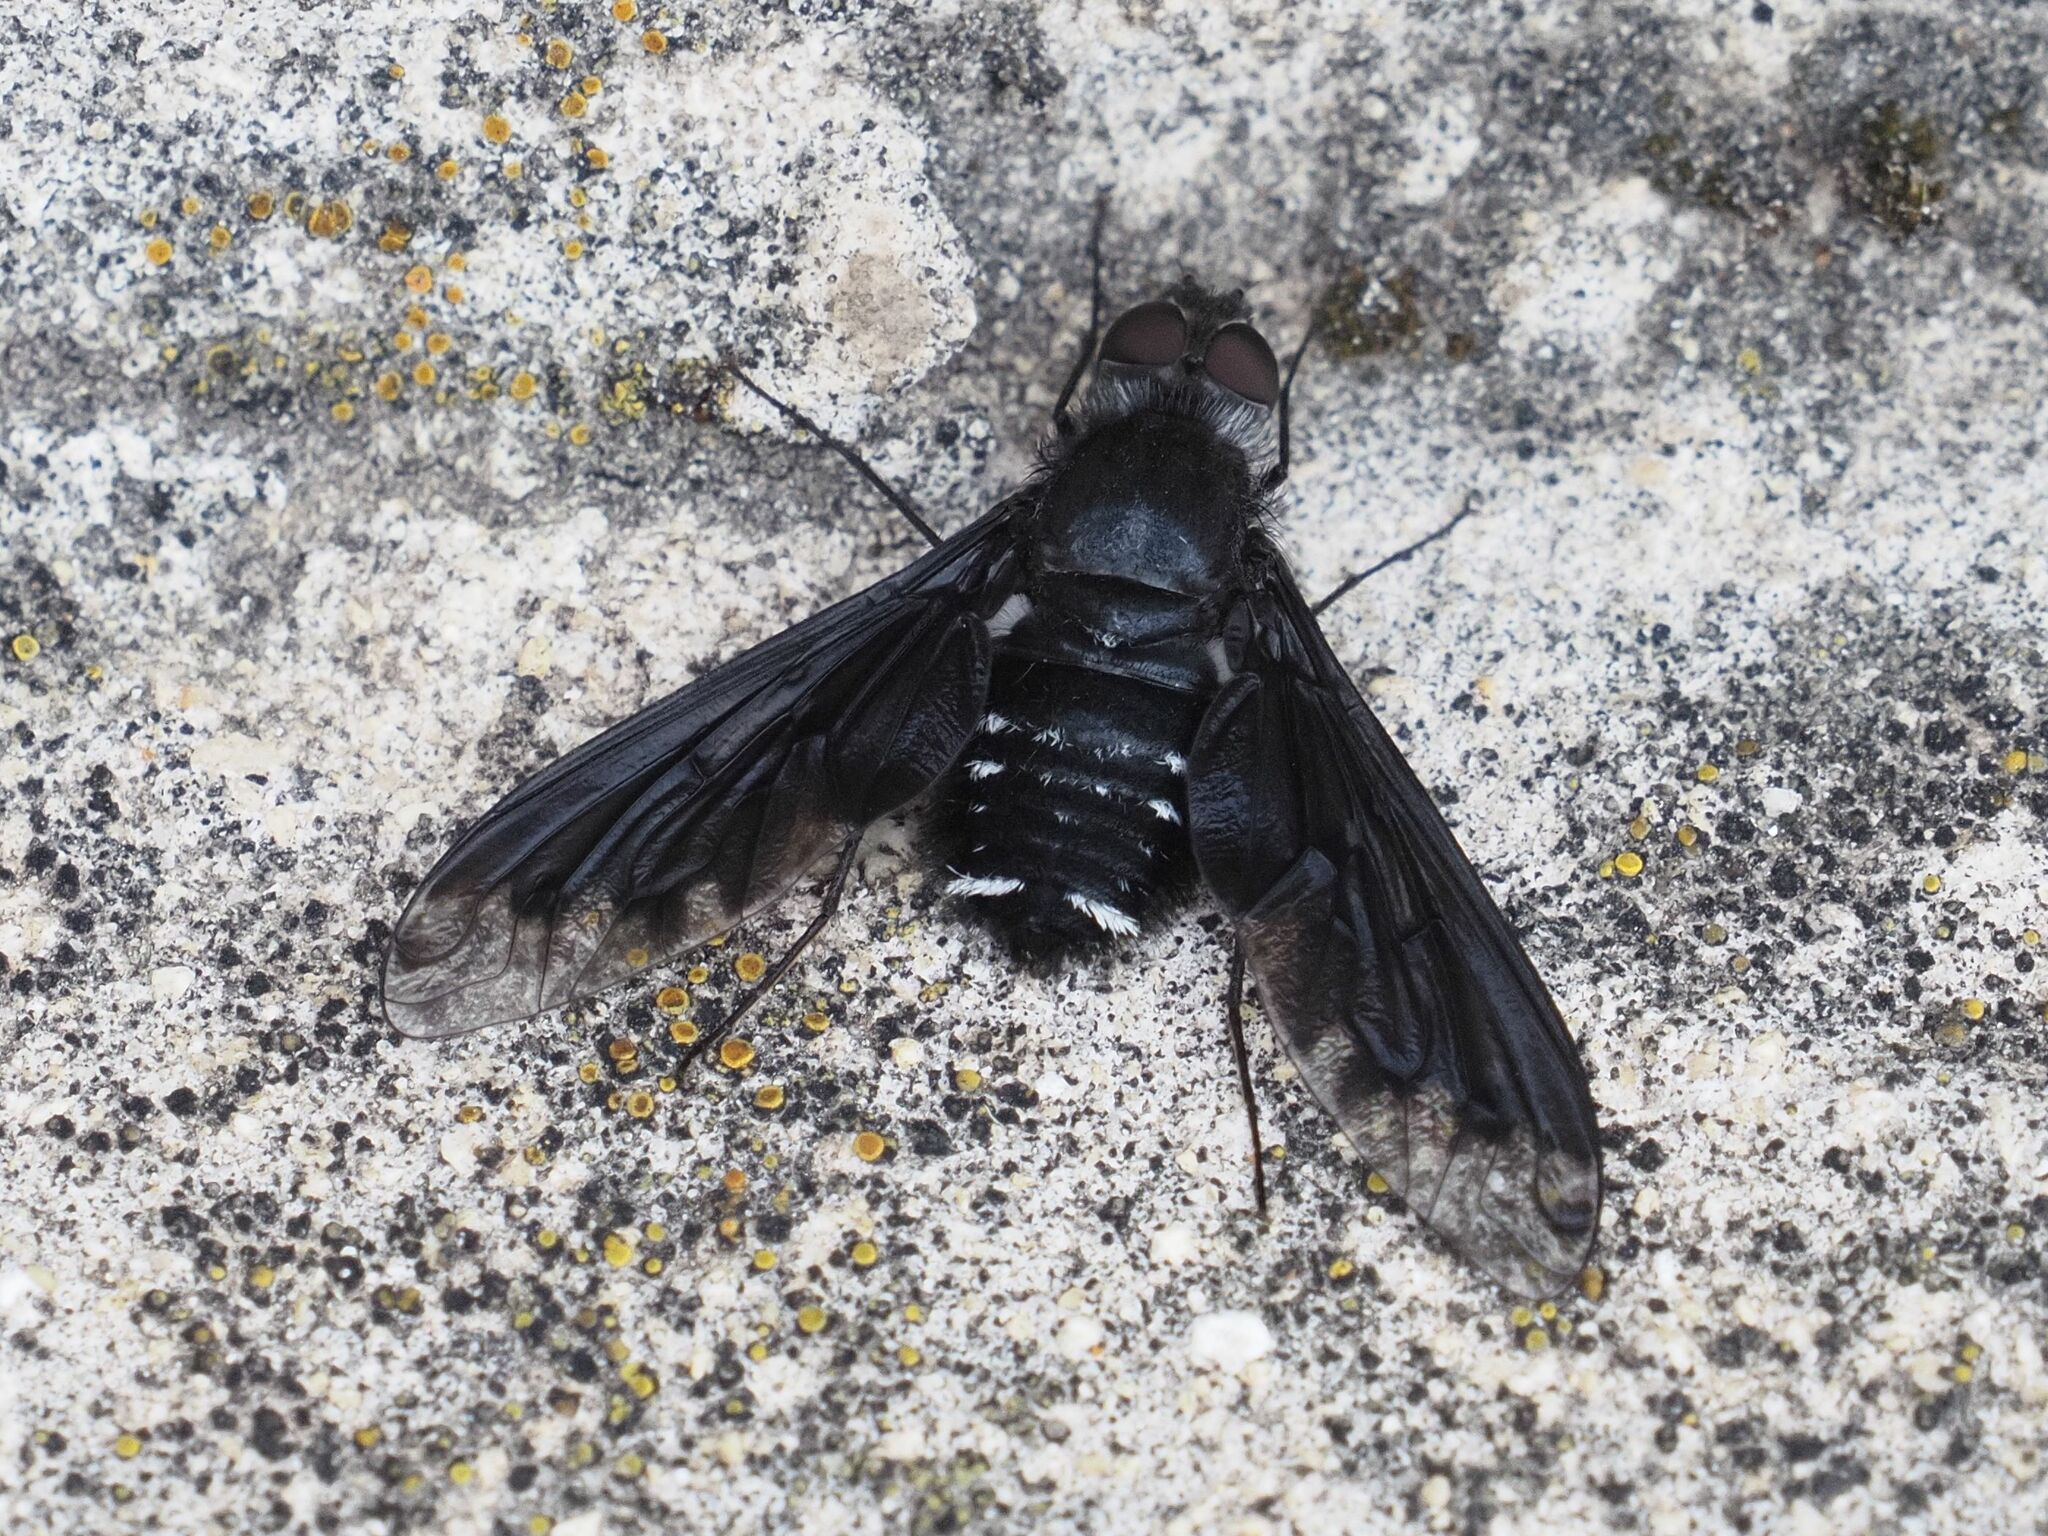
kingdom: Animalia
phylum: Arthropoda
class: Insecta
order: Diptera
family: Bombyliidae
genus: Anthrax
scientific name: Anthrax anthrax
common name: Anthracite bee-fly
